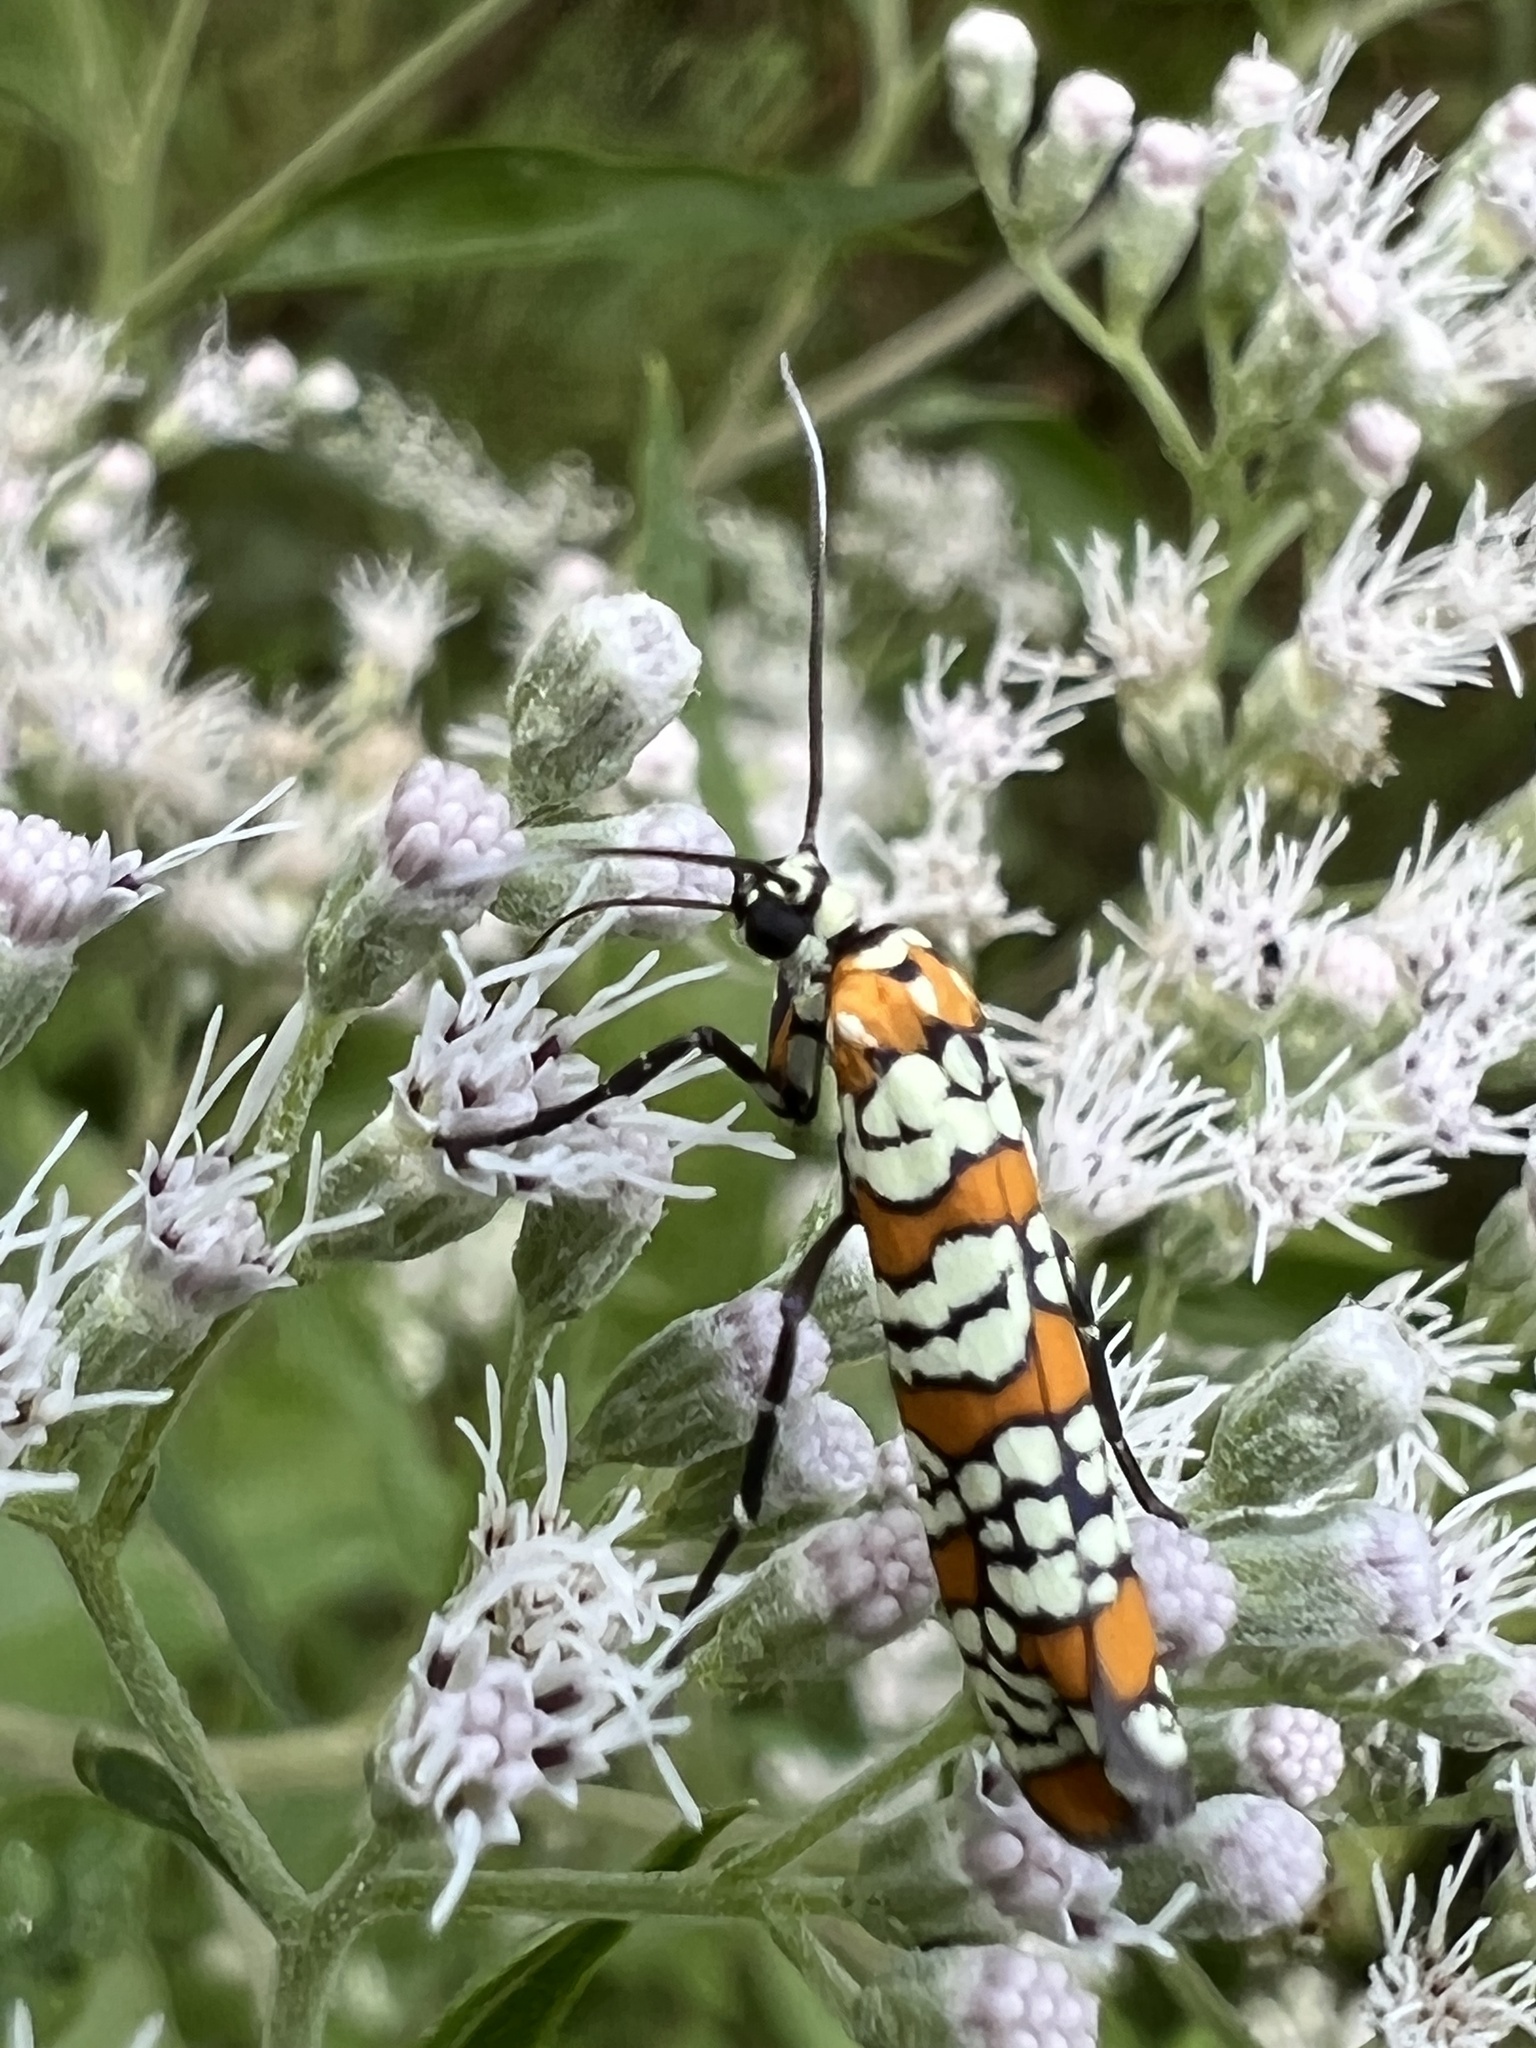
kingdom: Animalia
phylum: Arthropoda
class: Insecta
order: Lepidoptera
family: Attevidae
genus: Atteva
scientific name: Atteva punctella
